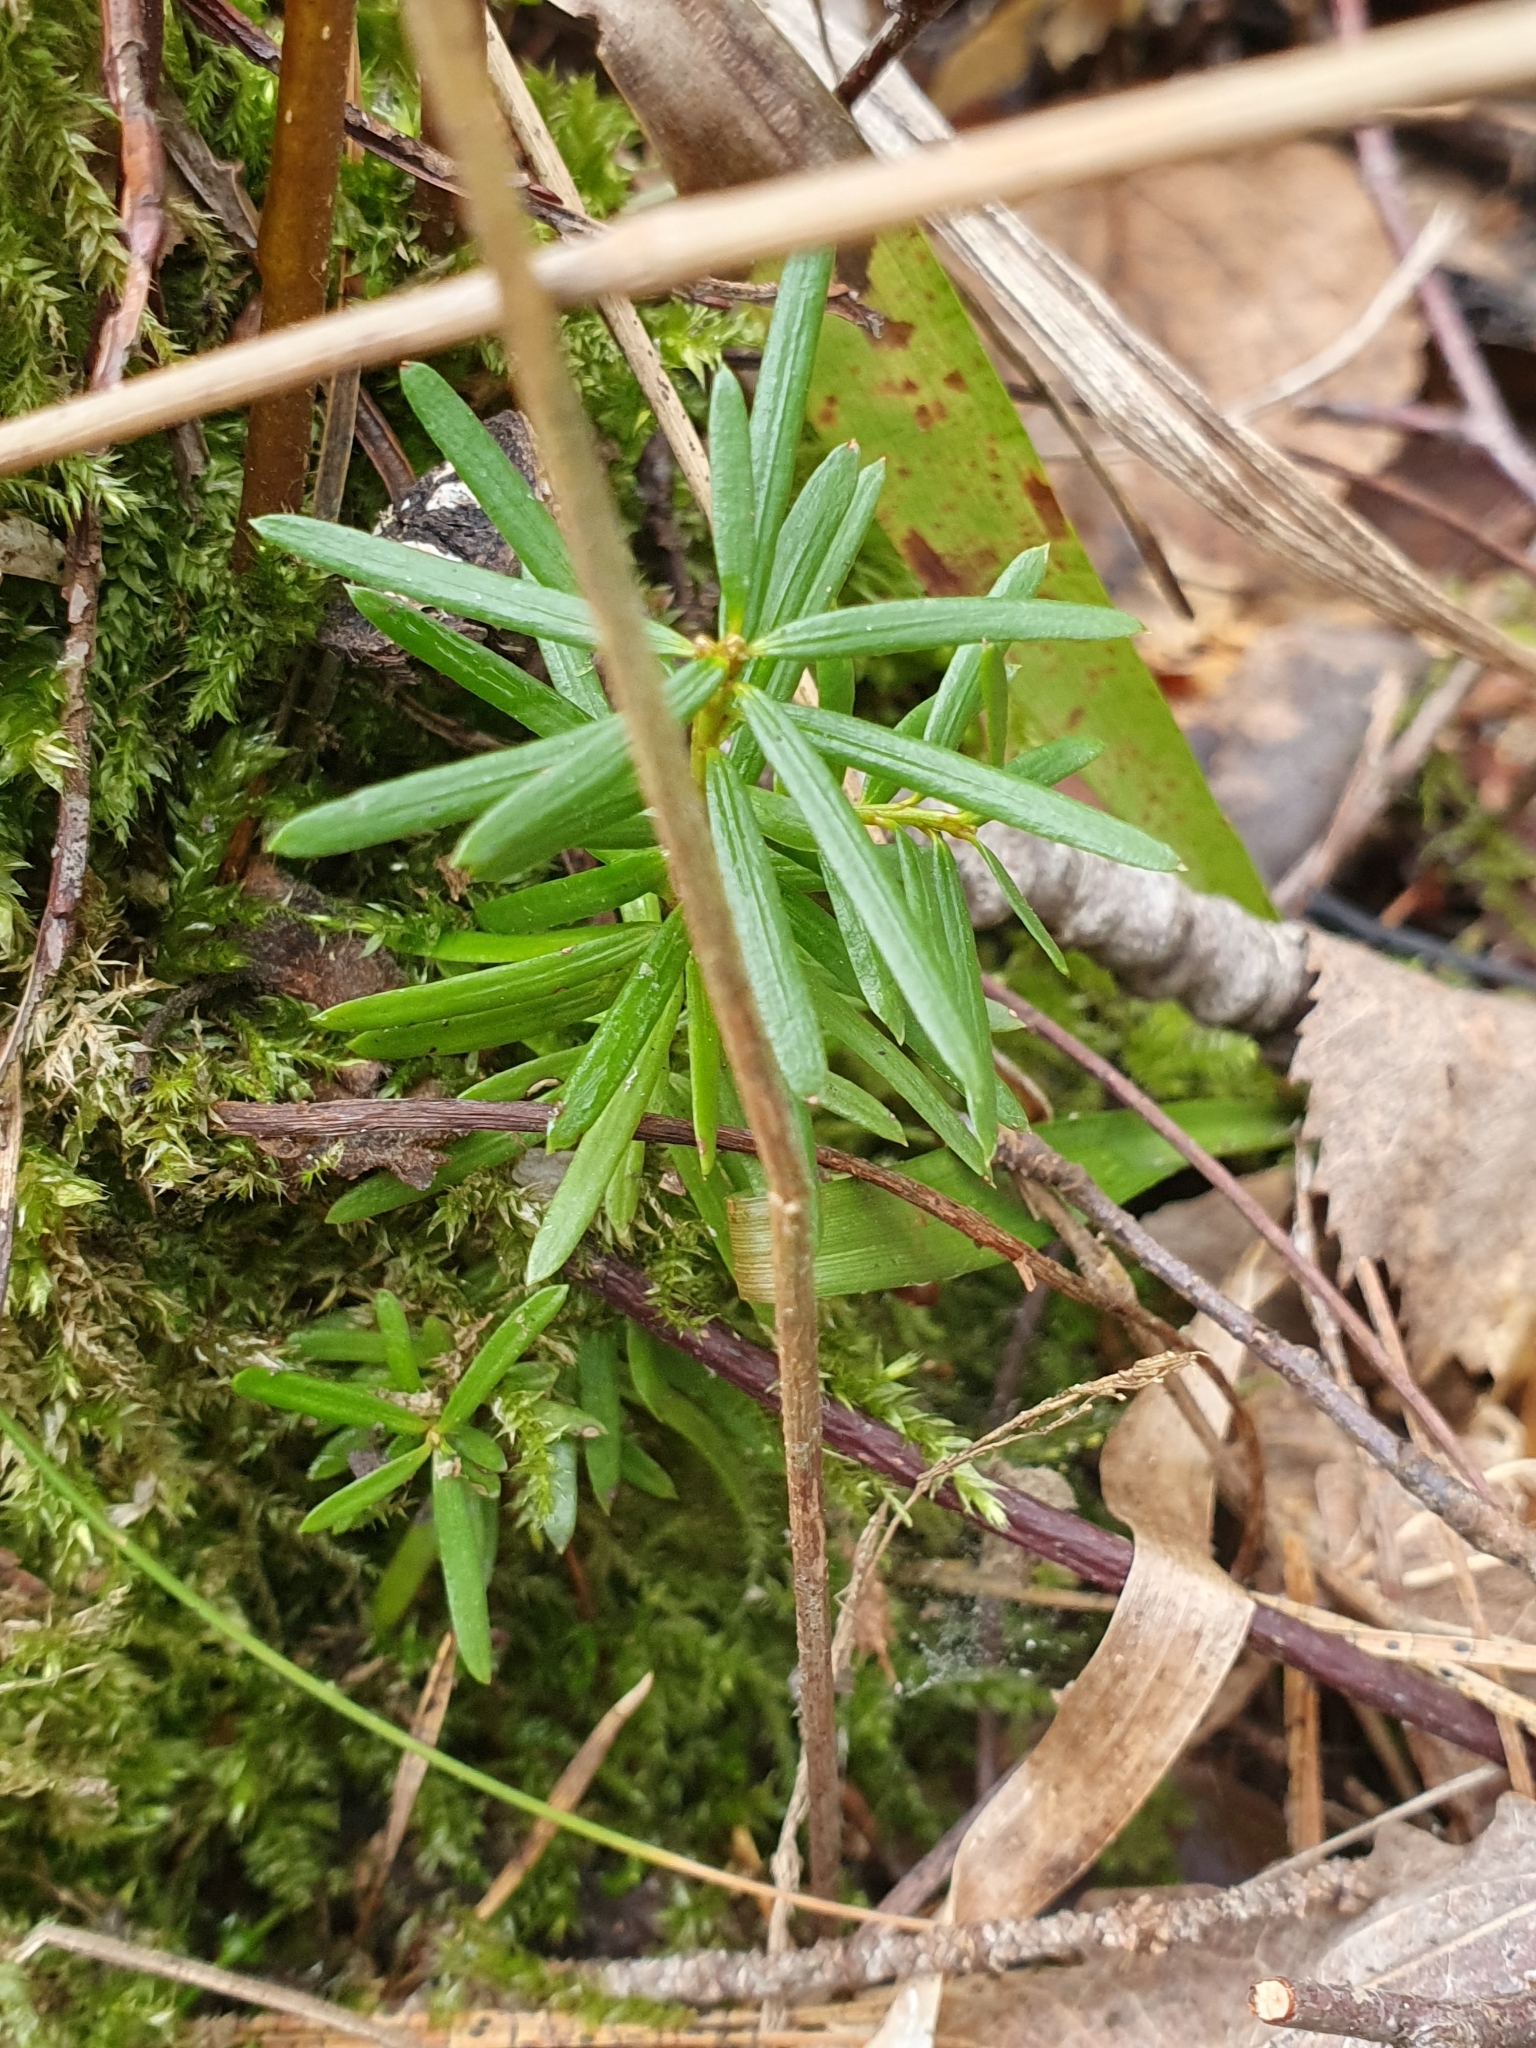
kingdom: Plantae
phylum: Tracheophyta
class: Pinopsida
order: Pinales
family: Taxaceae
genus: Taxus
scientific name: Taxus baccata
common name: Yew
